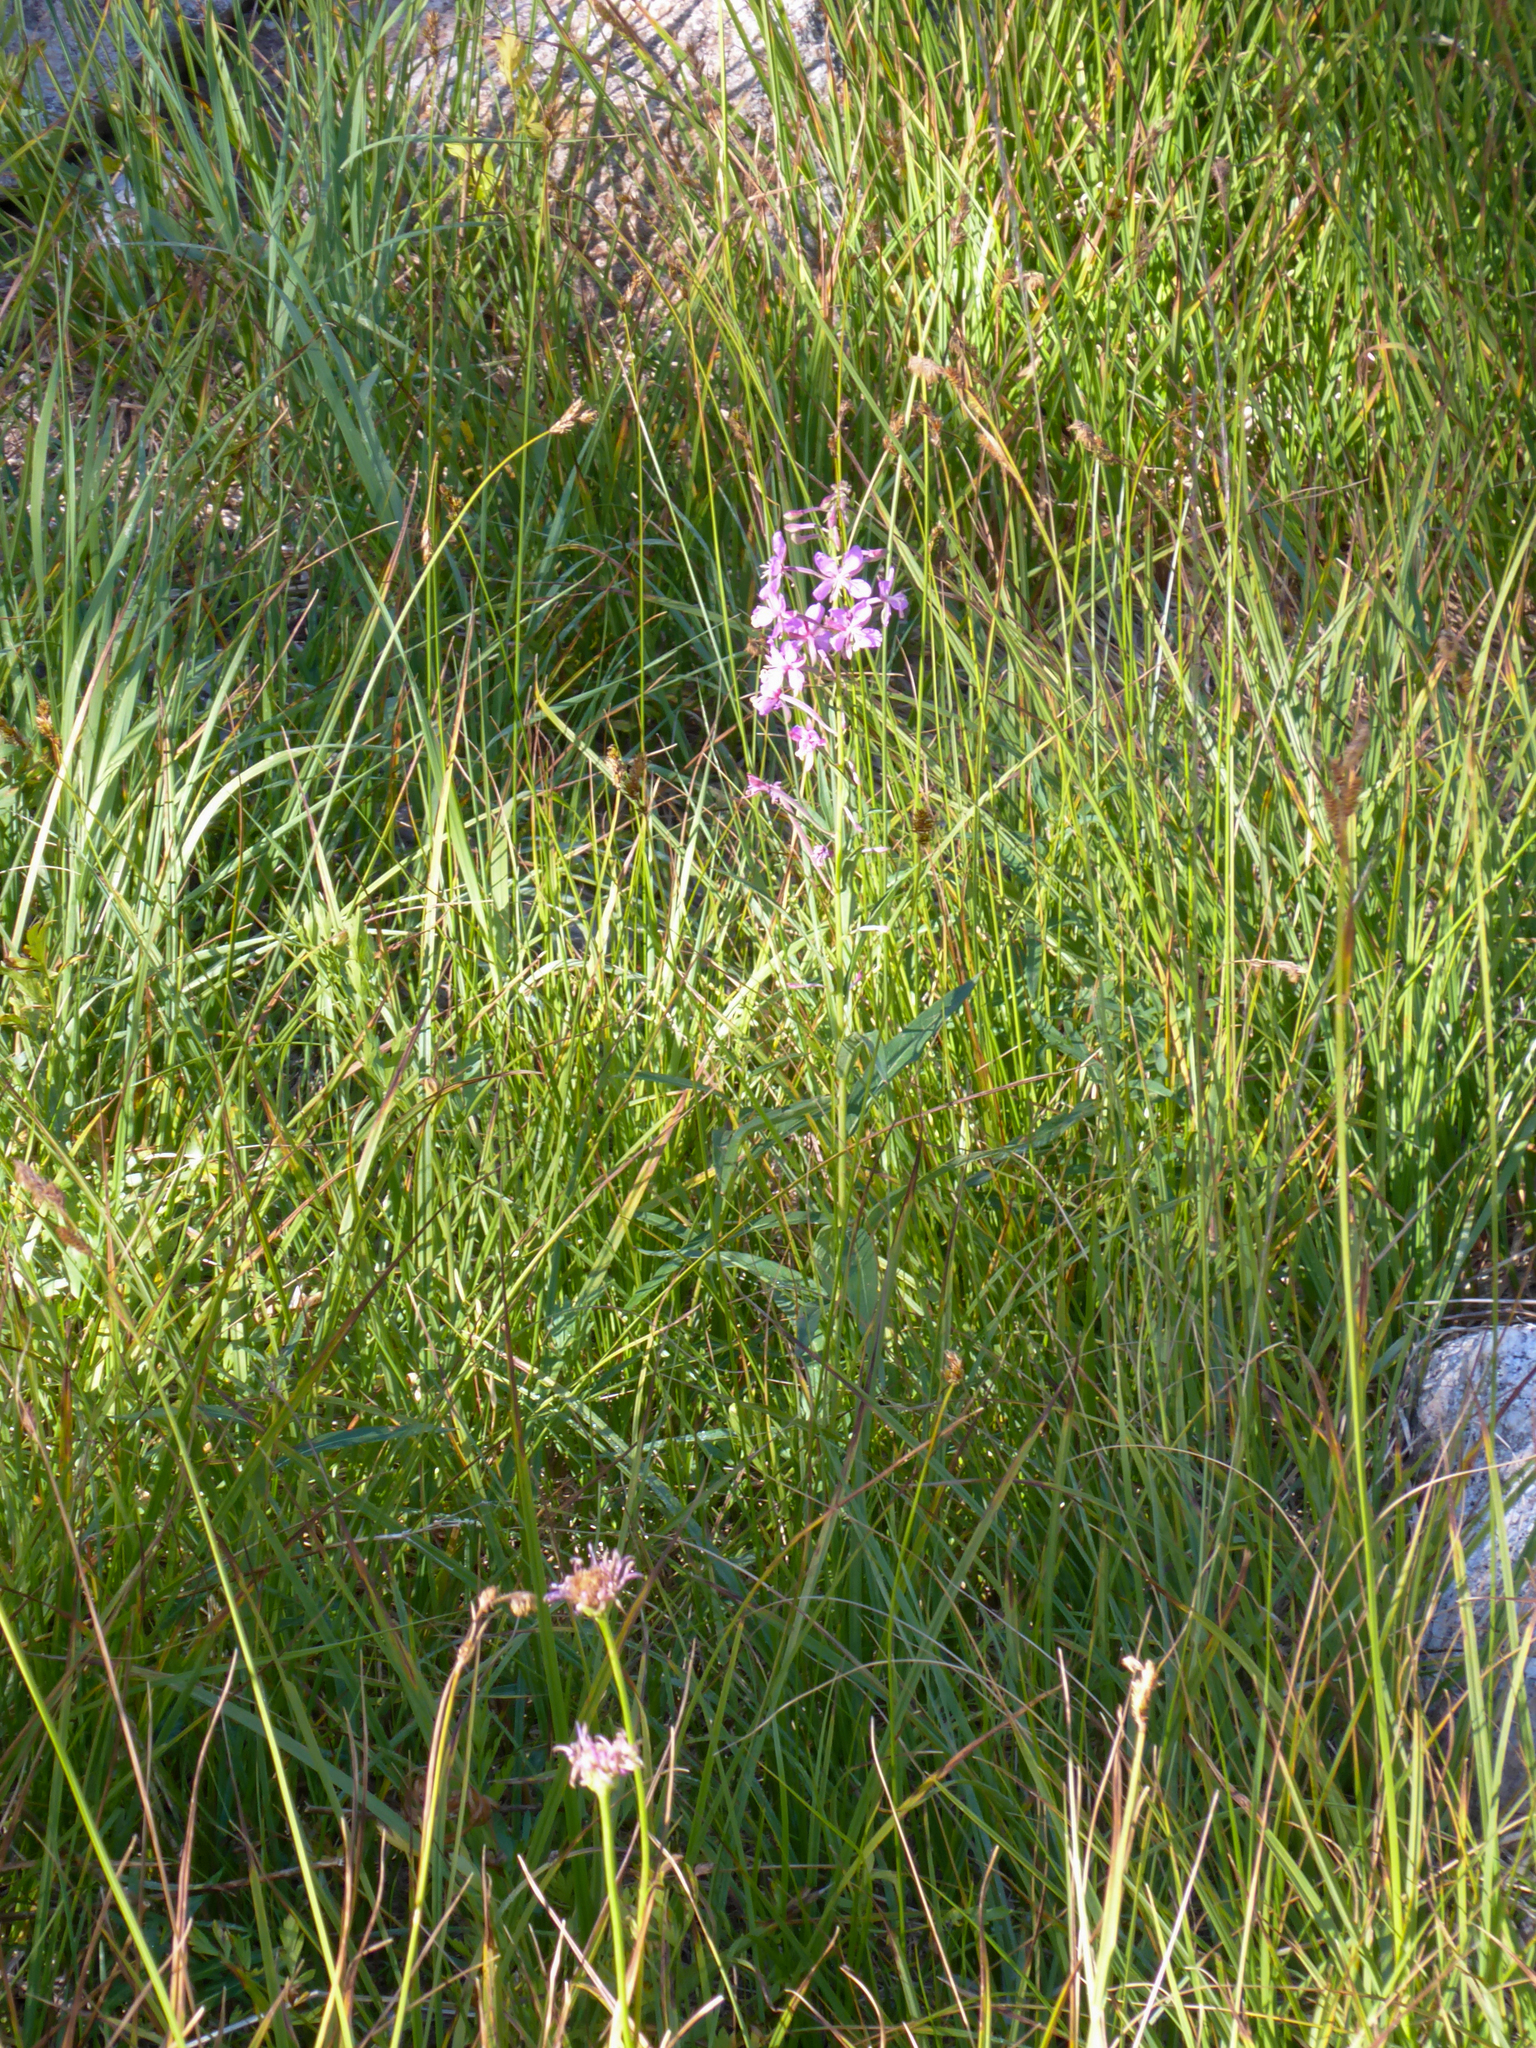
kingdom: Plantae
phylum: Tracheophyta
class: Magnoliopsida
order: Myrtales
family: Onagraceae
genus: Chamaenerion
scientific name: Chamaenerion angustifolium
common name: Fireweed
